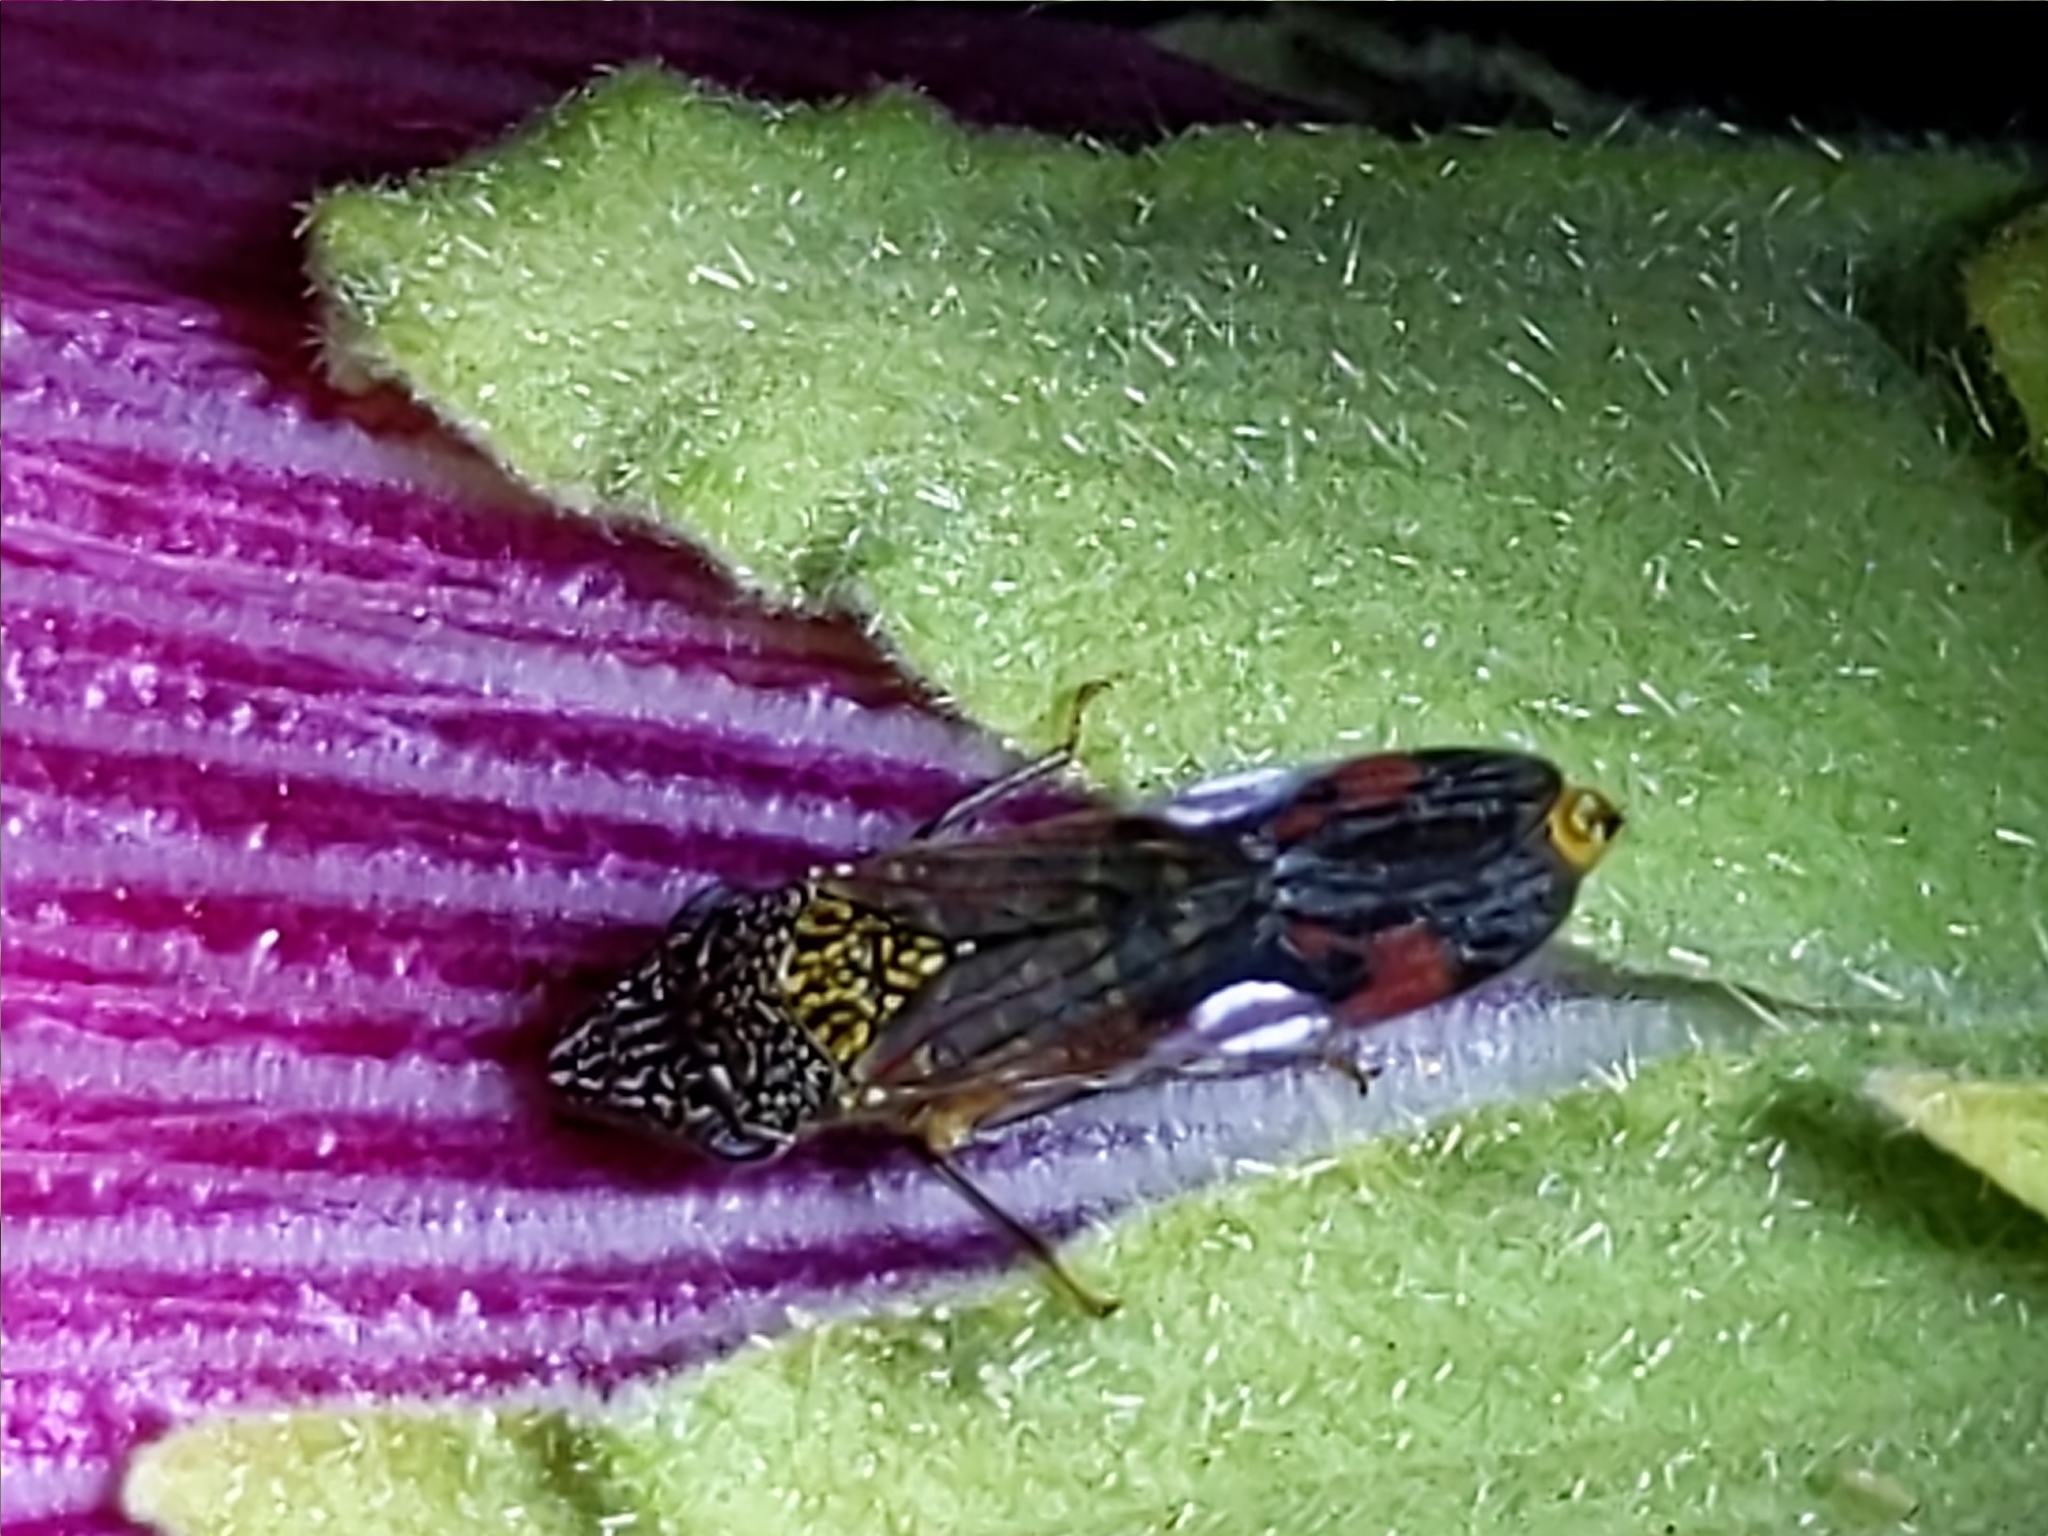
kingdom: Animalia
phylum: Arthropoda
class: Insecta
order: Hemiptera
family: Cicadellidae
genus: Homalodisca
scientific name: Homalodisca liturata
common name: Lacertate sharpshooter
